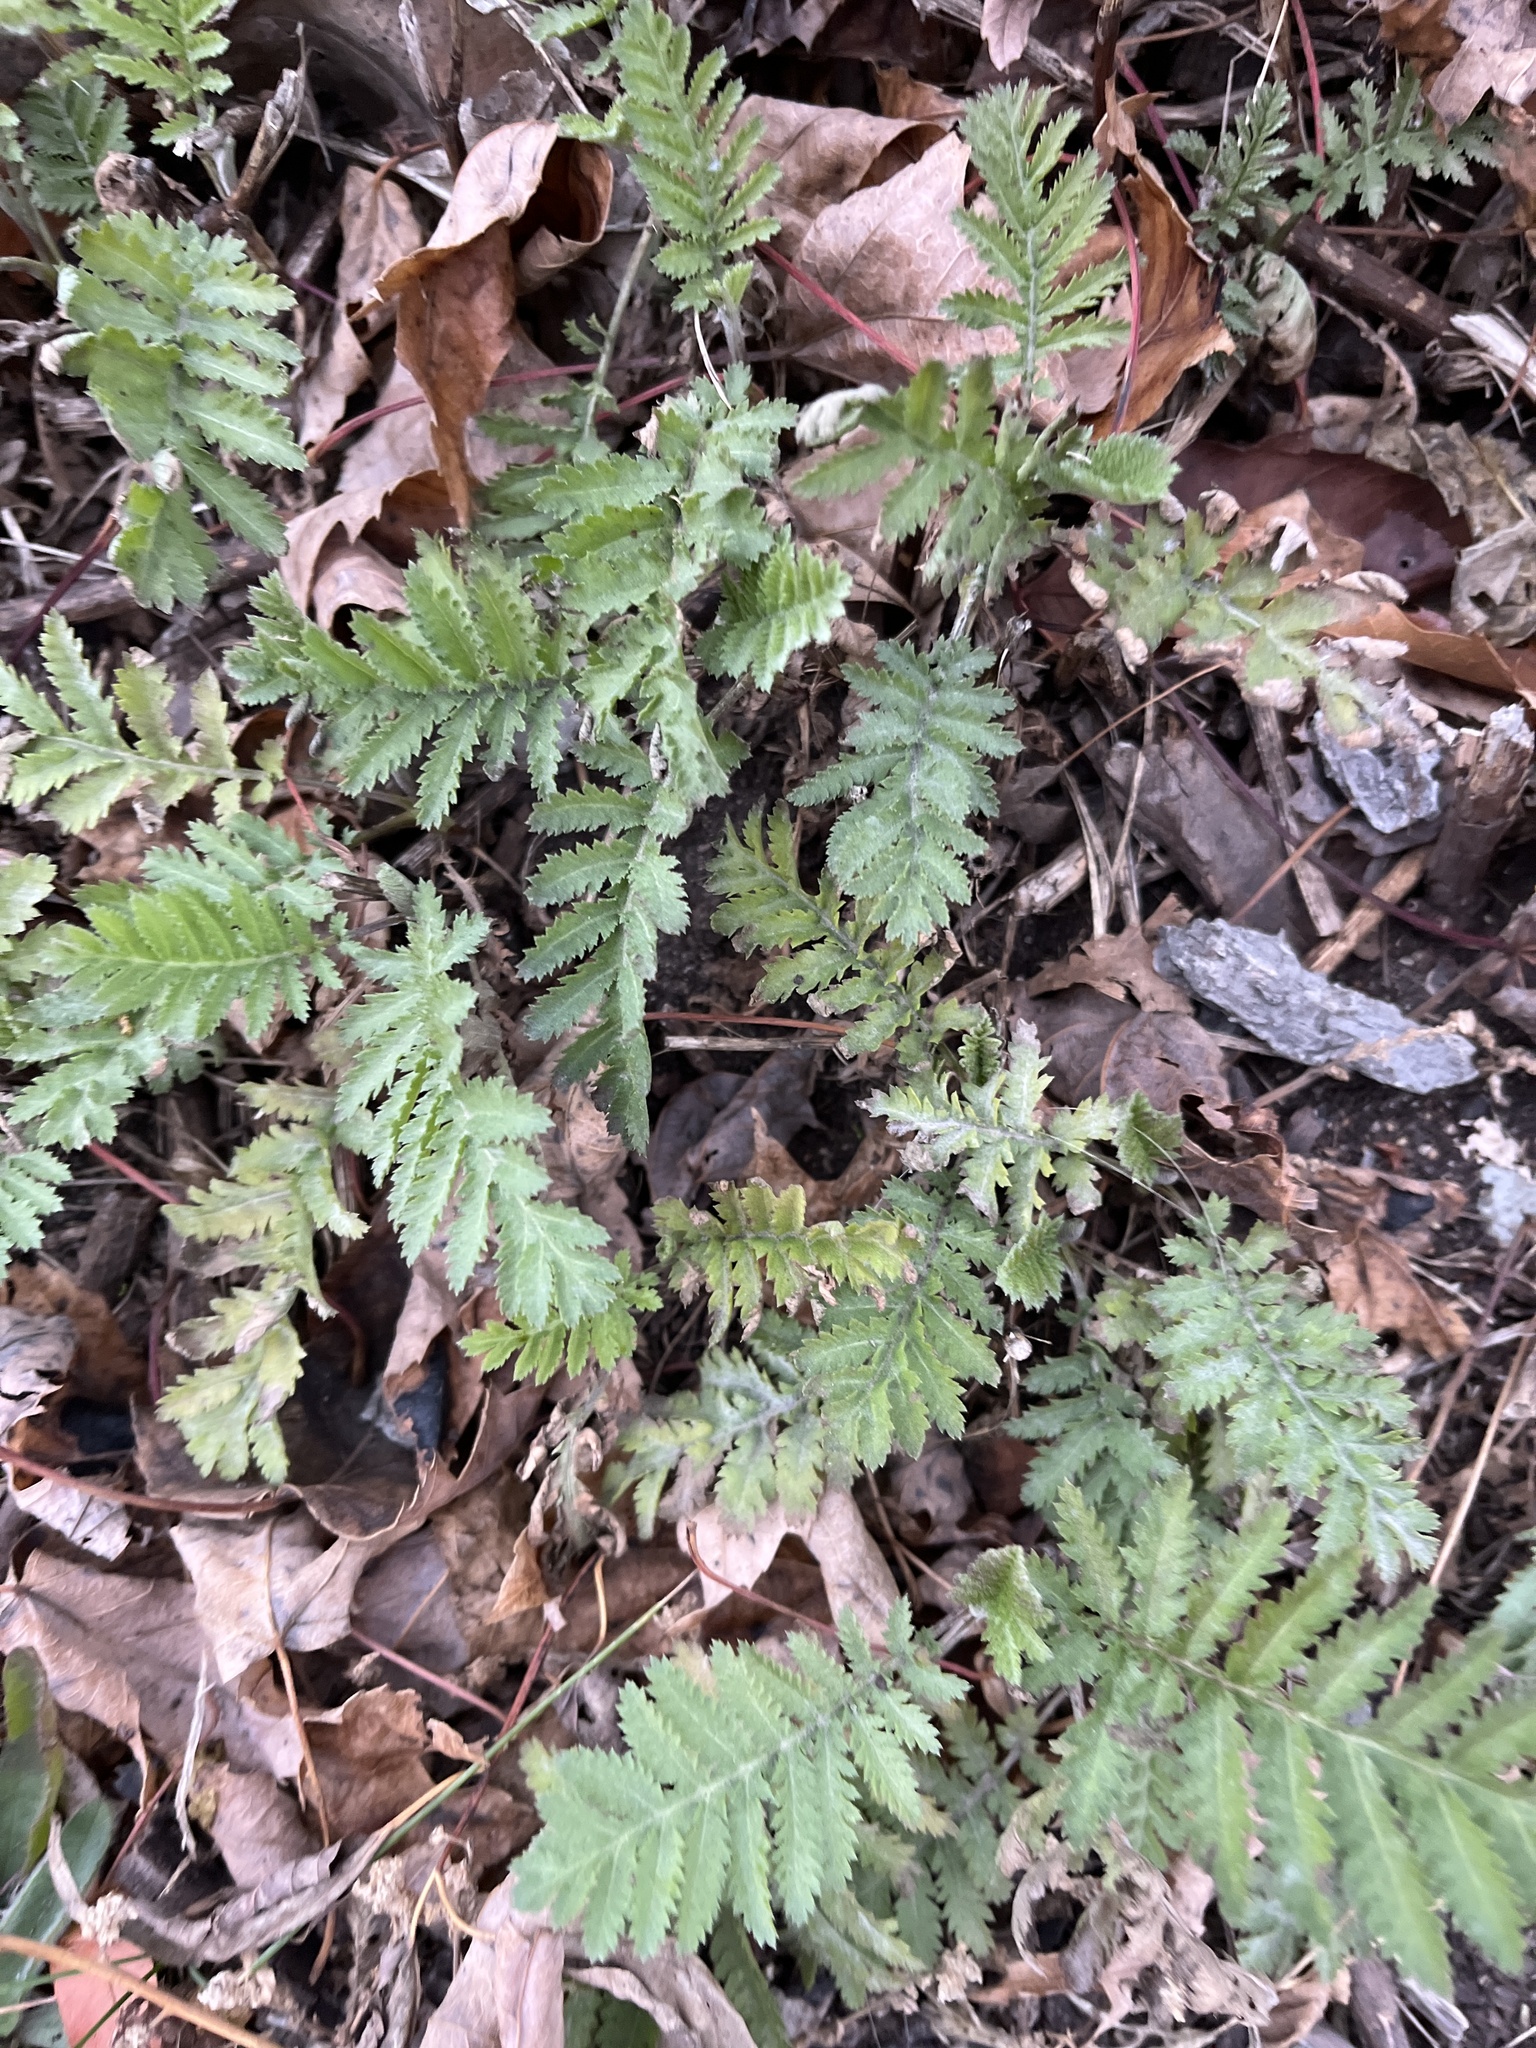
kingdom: Plantae
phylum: Tracheophyta
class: Magnoliopsida
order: Asterales
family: Asteraceae
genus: Tanacetum
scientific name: Tanacetum vulgare
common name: Common tansy
